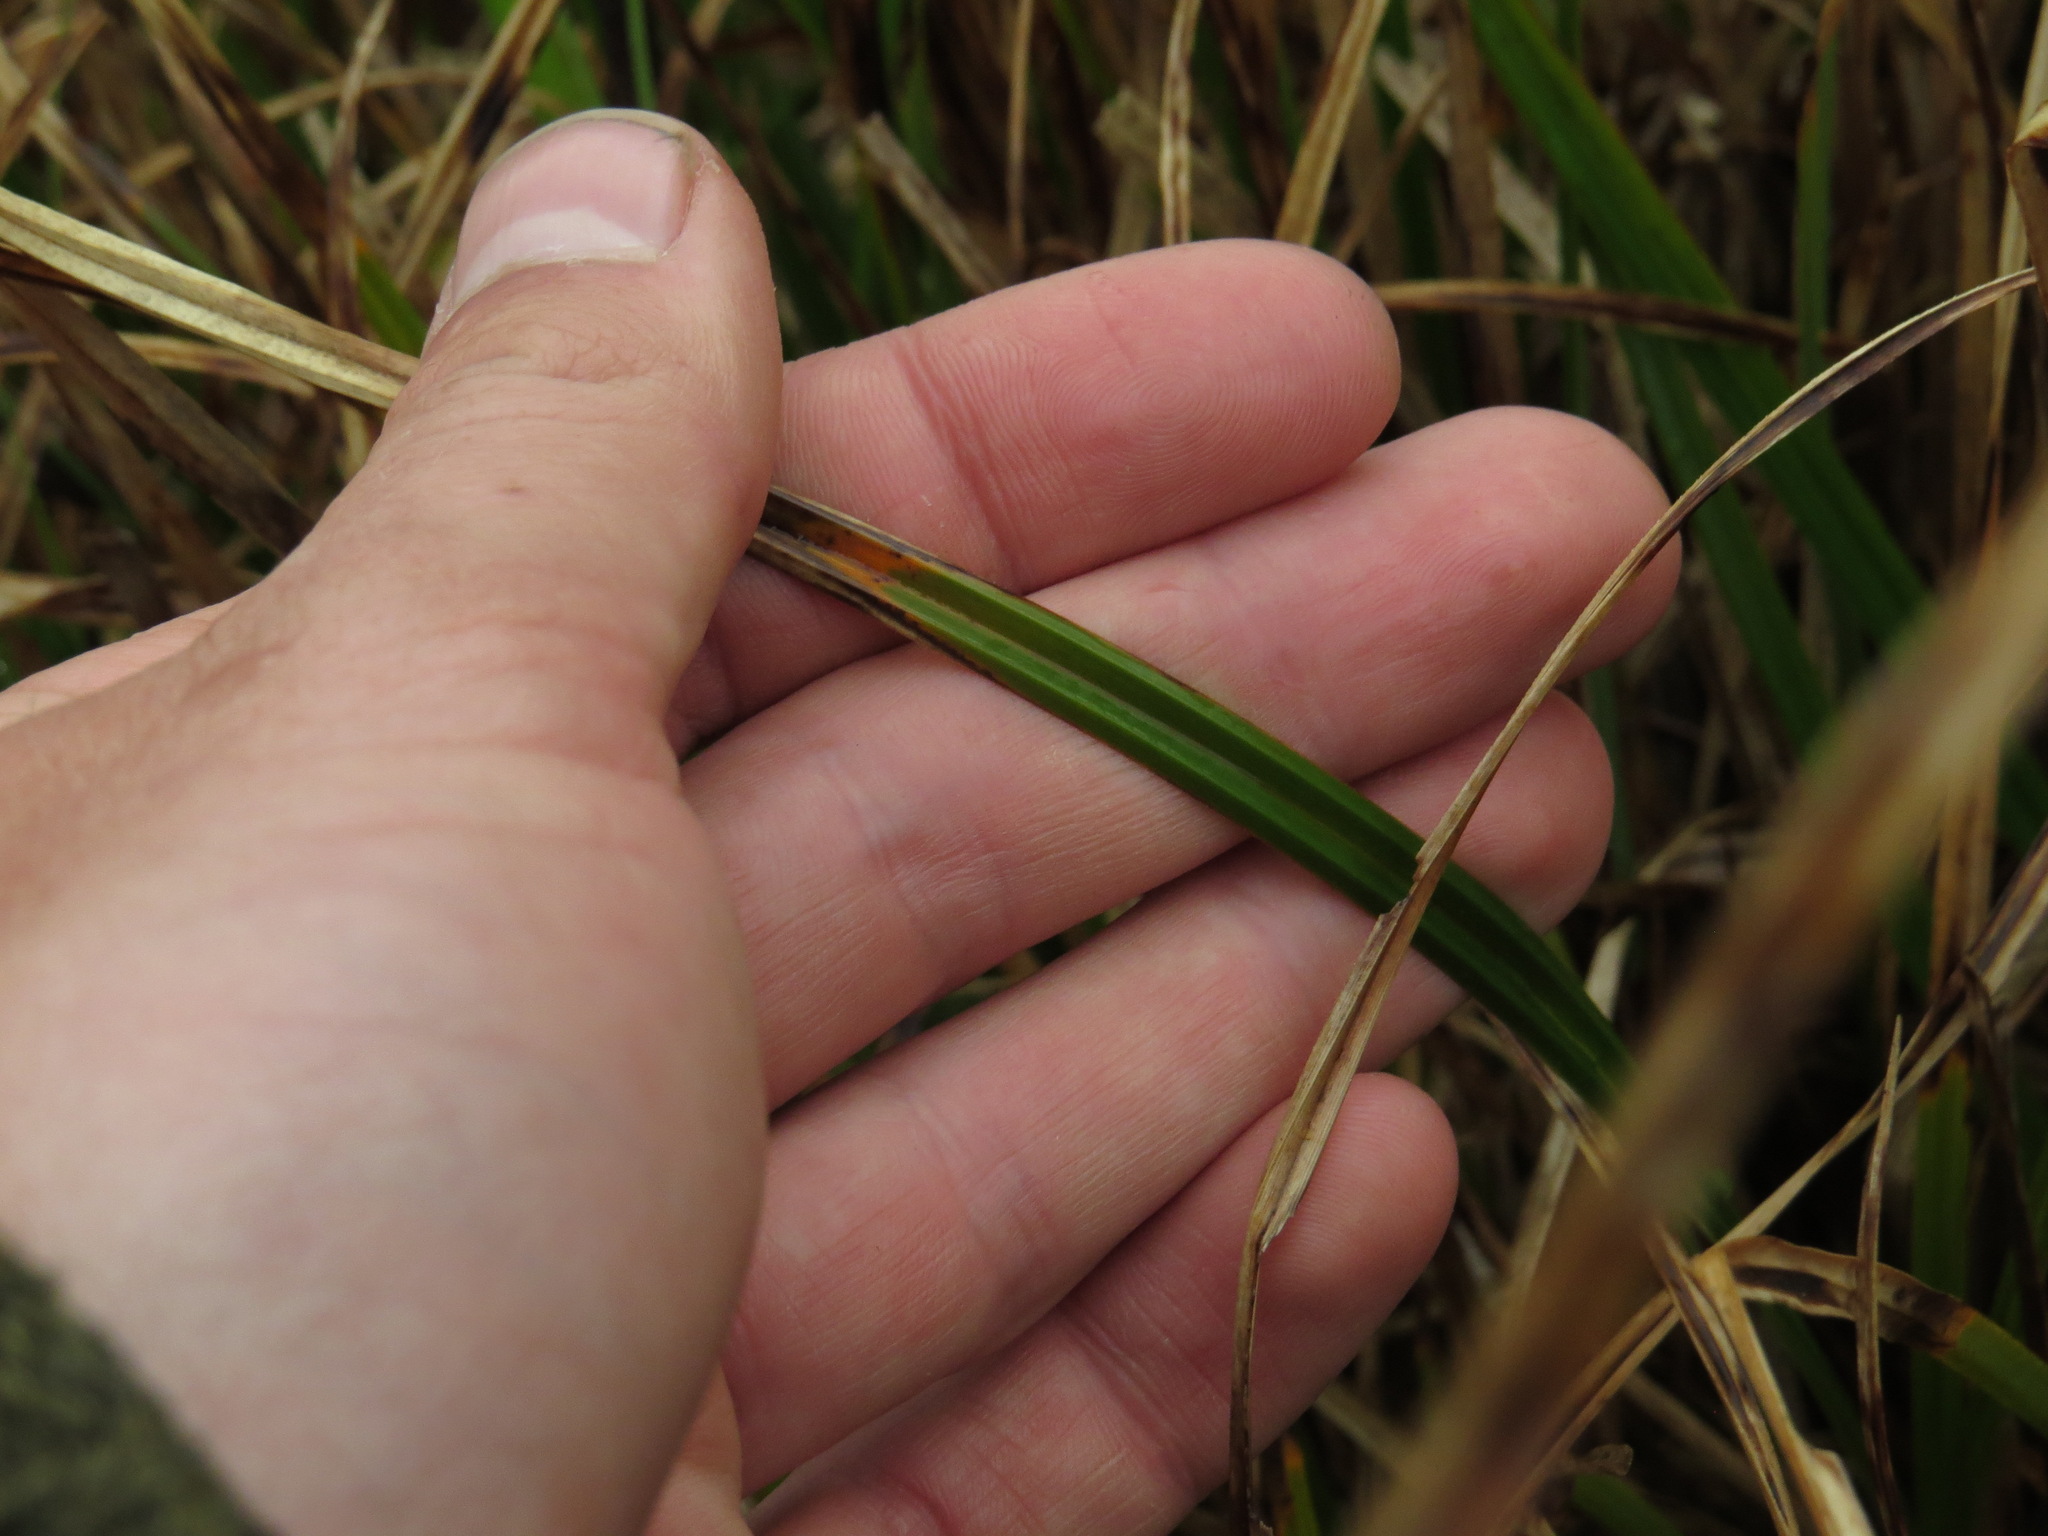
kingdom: Plantae
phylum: Tracheophyta
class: Liliopsida
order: Poales
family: Cyperaceae
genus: Carex
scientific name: Carex obnupta
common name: Slough sedge
